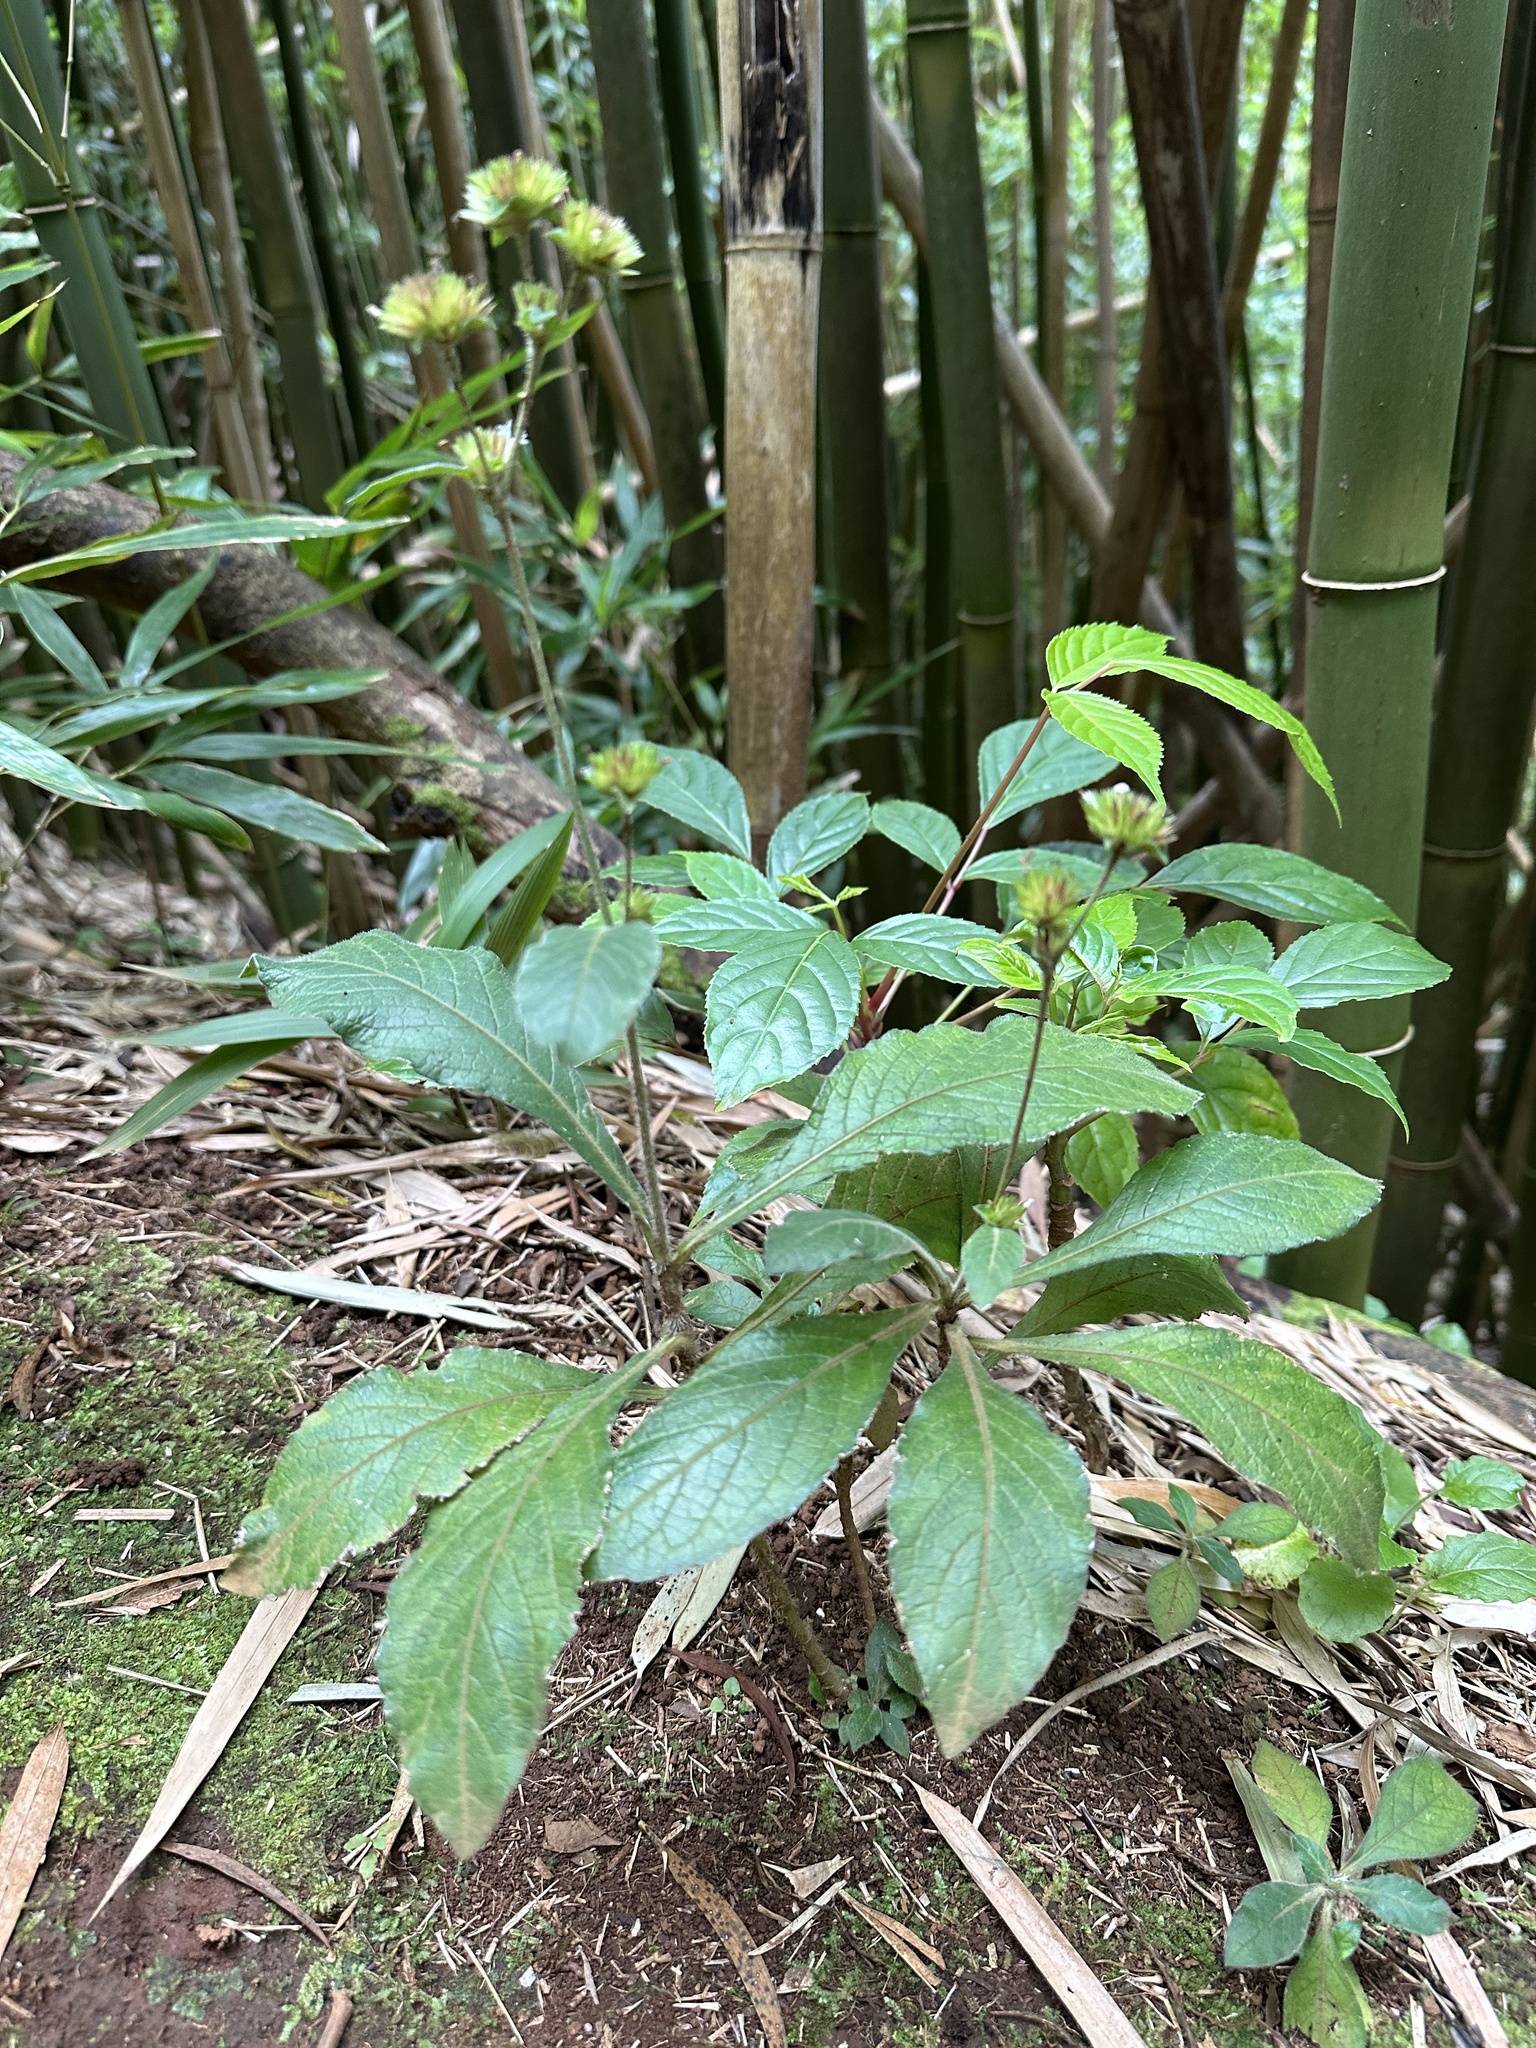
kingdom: Plantae
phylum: Tracheophyta
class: Magnoliopsida
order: Asterales
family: Asteraceae
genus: Elephantopus
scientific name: Elephantopus mollis
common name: Soft elephantsfoot
